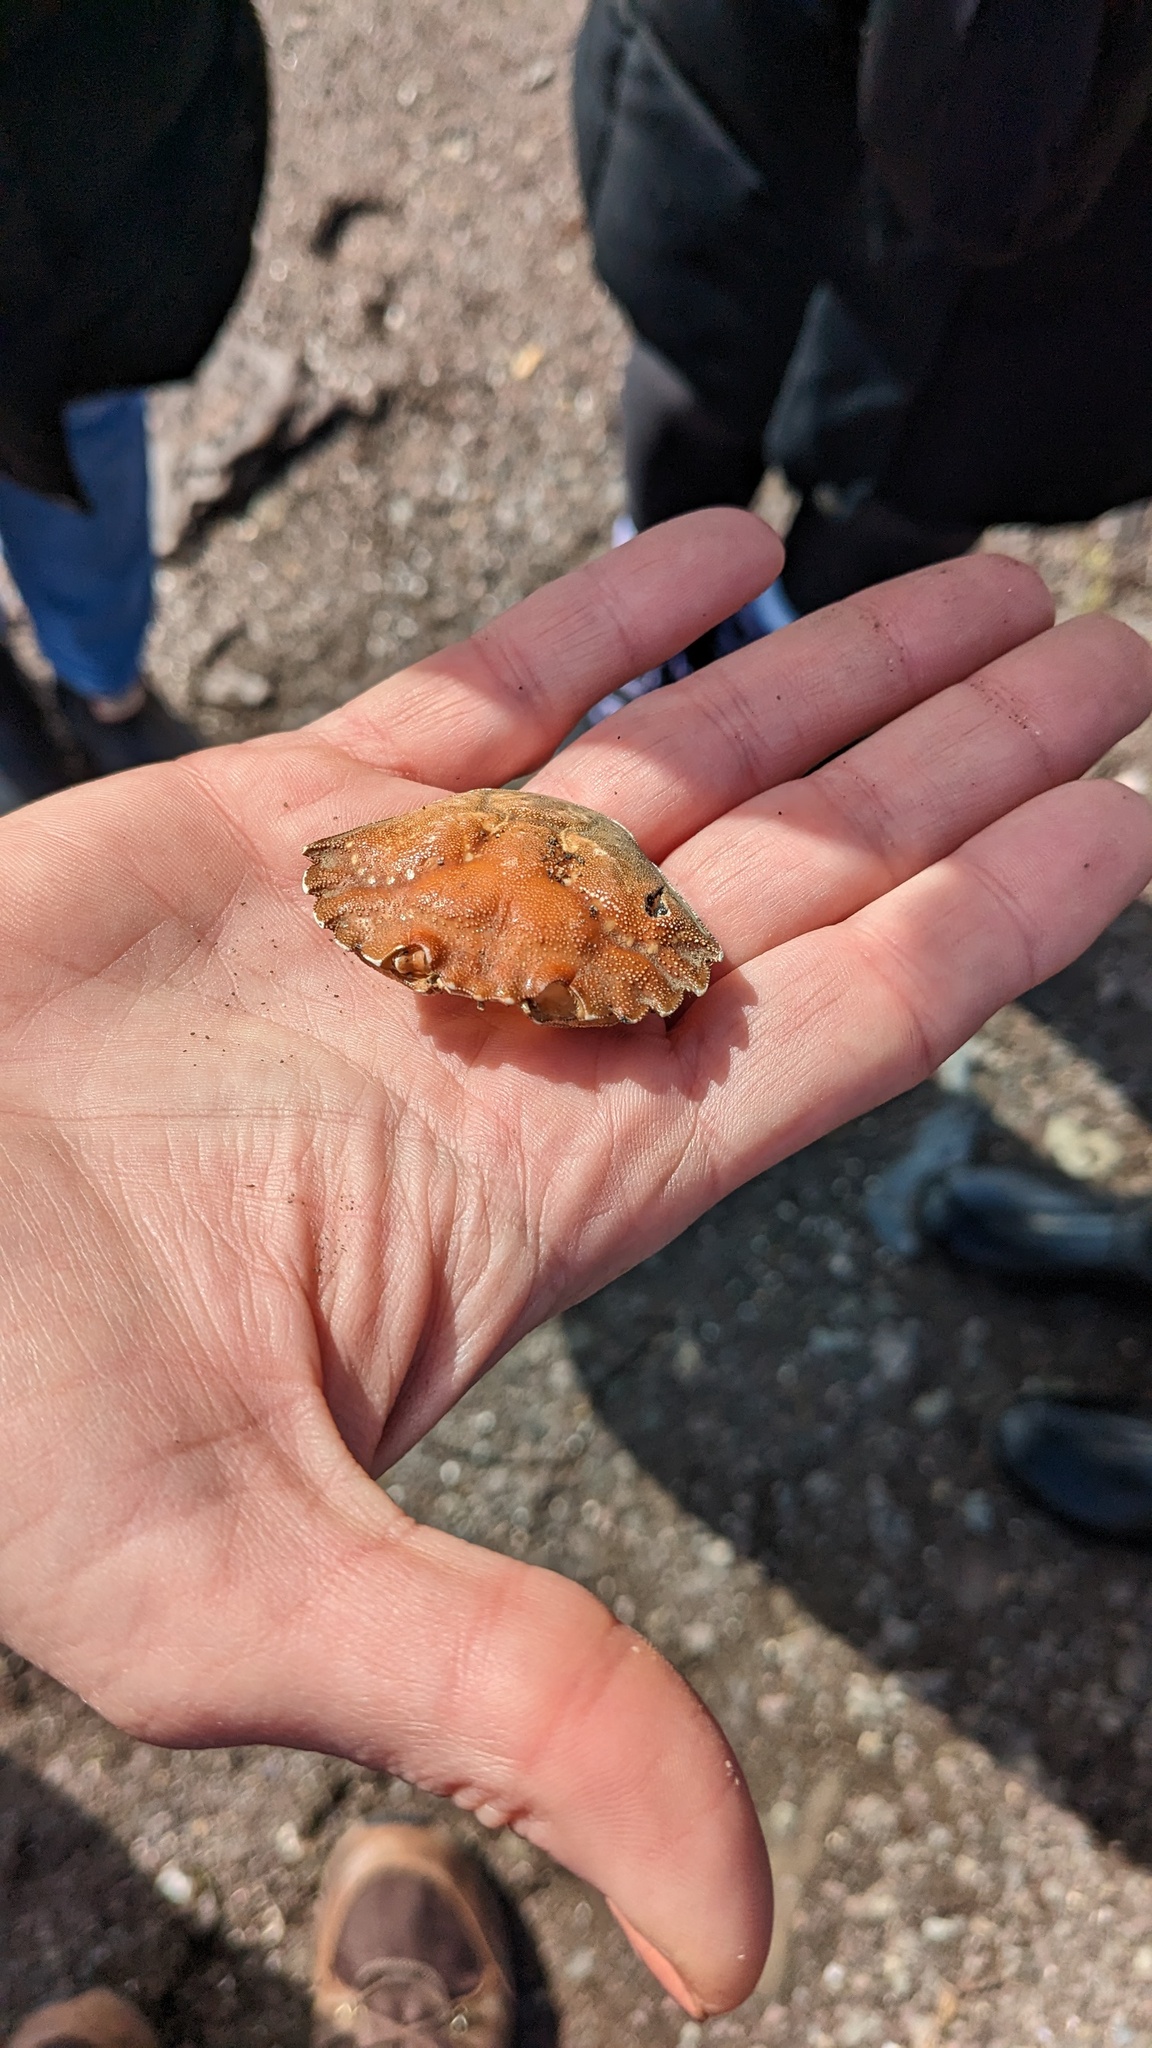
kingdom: Animalia
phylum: Arthropoda
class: Malacostraca
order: Decapoda
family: Carcinidae
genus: Carcinus
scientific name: Carcinus maenas
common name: European green crab
